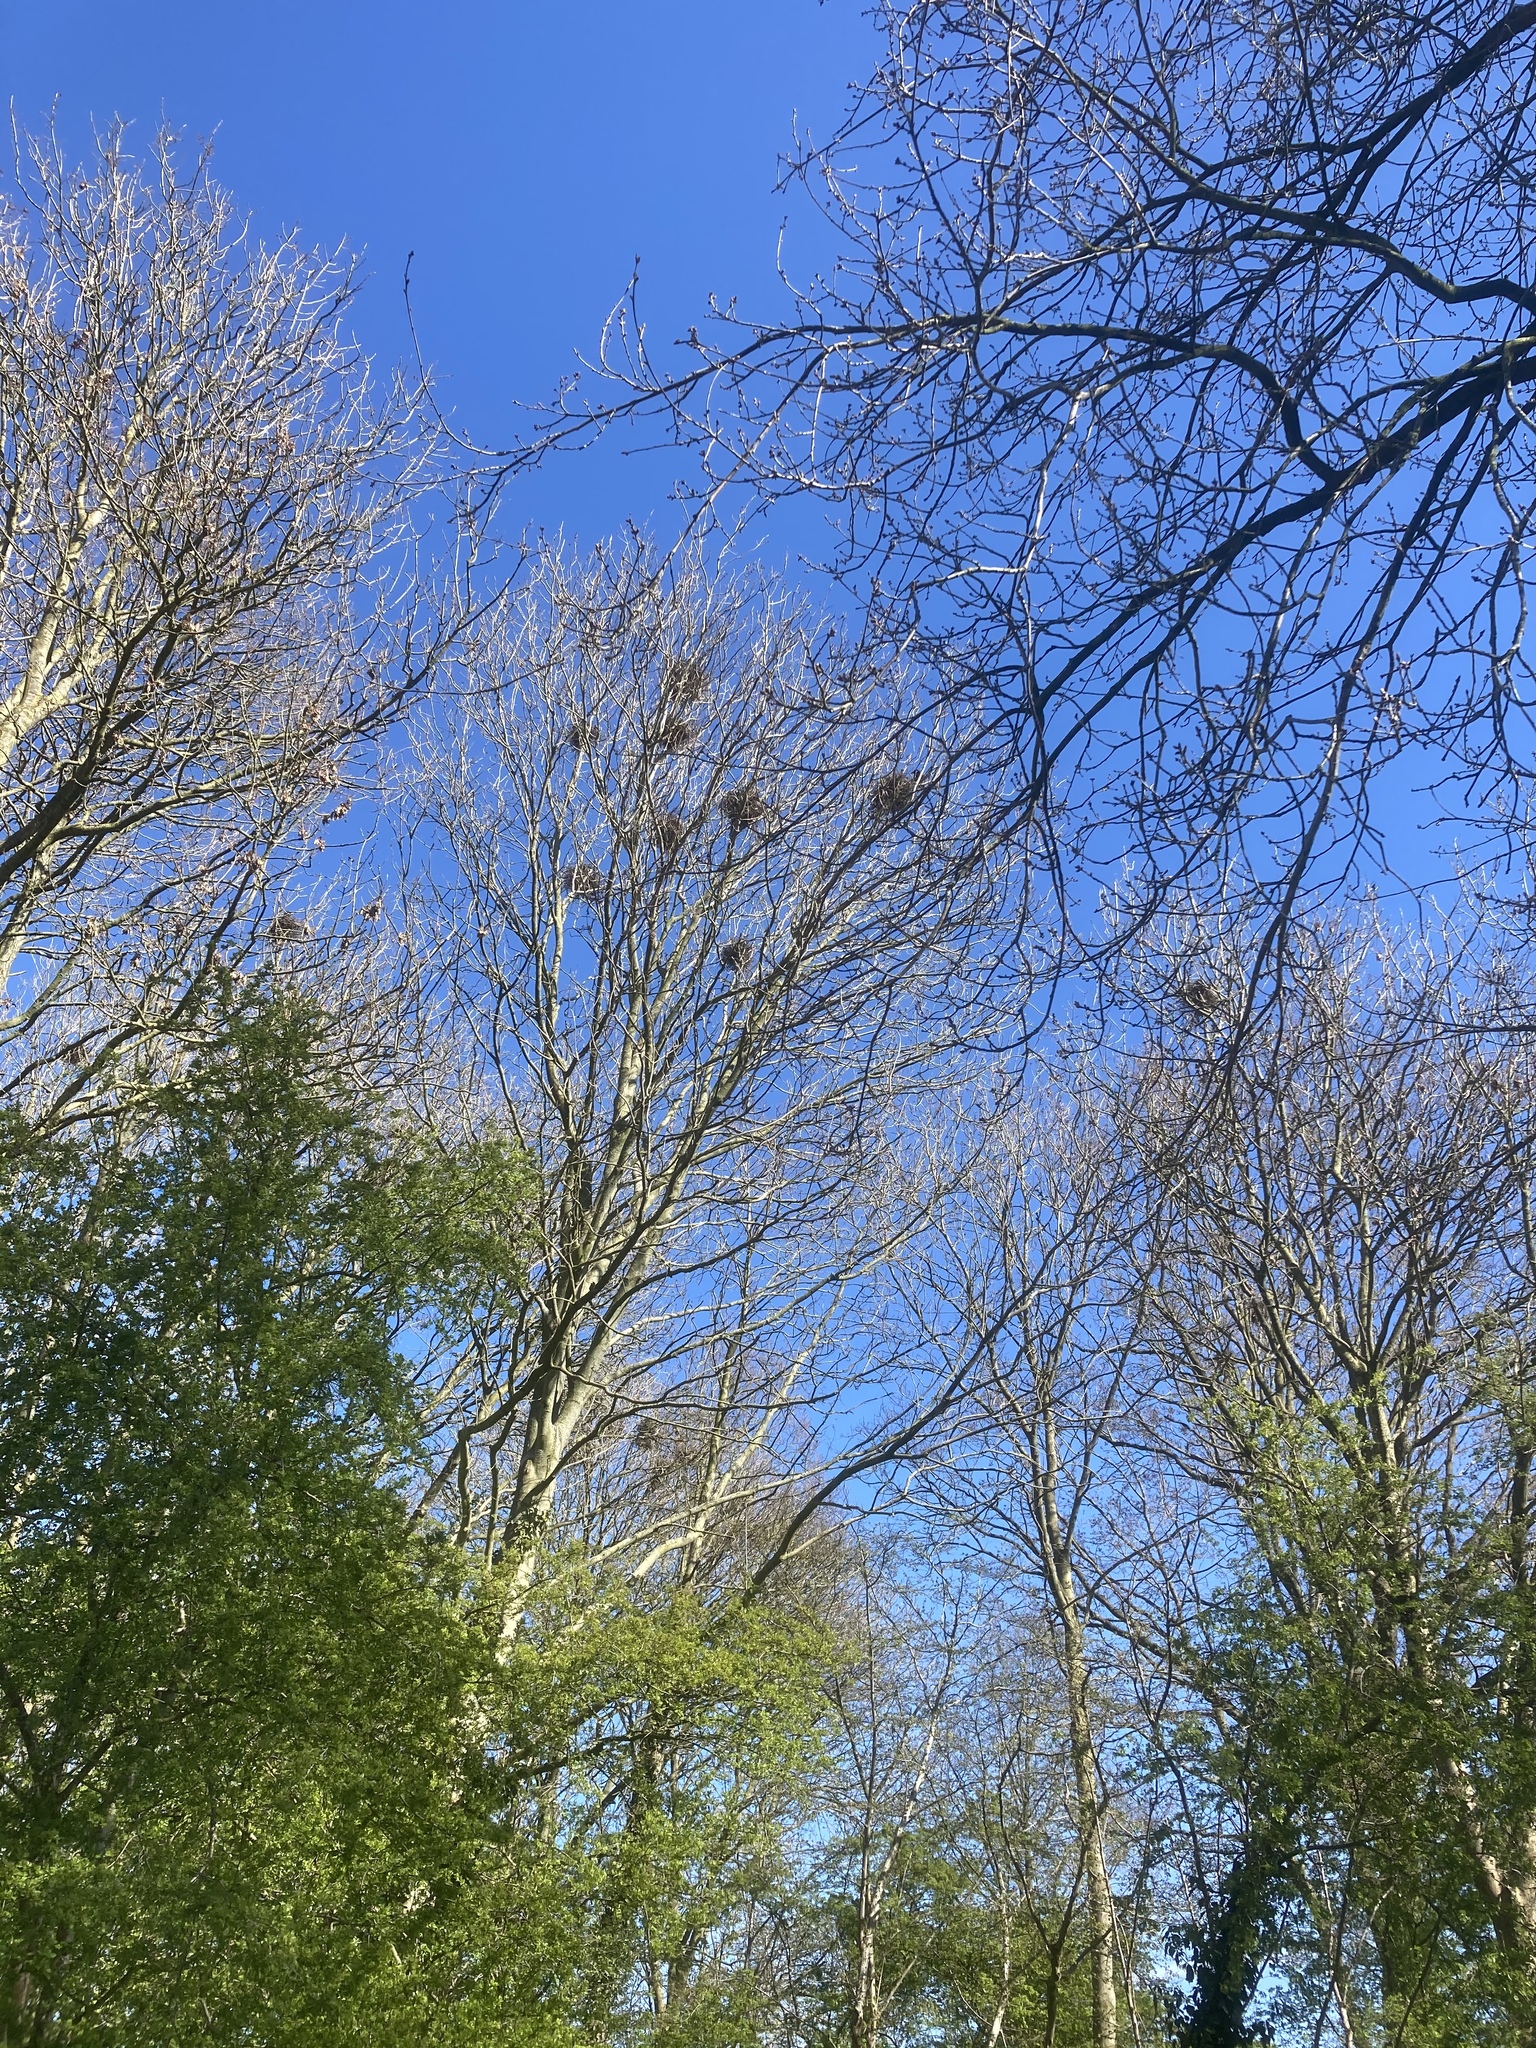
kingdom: Animalia
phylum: Chordata
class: Aves
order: Passeriformes
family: Corvidae
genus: Corvus
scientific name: Corvus frugilegus
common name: Rook
